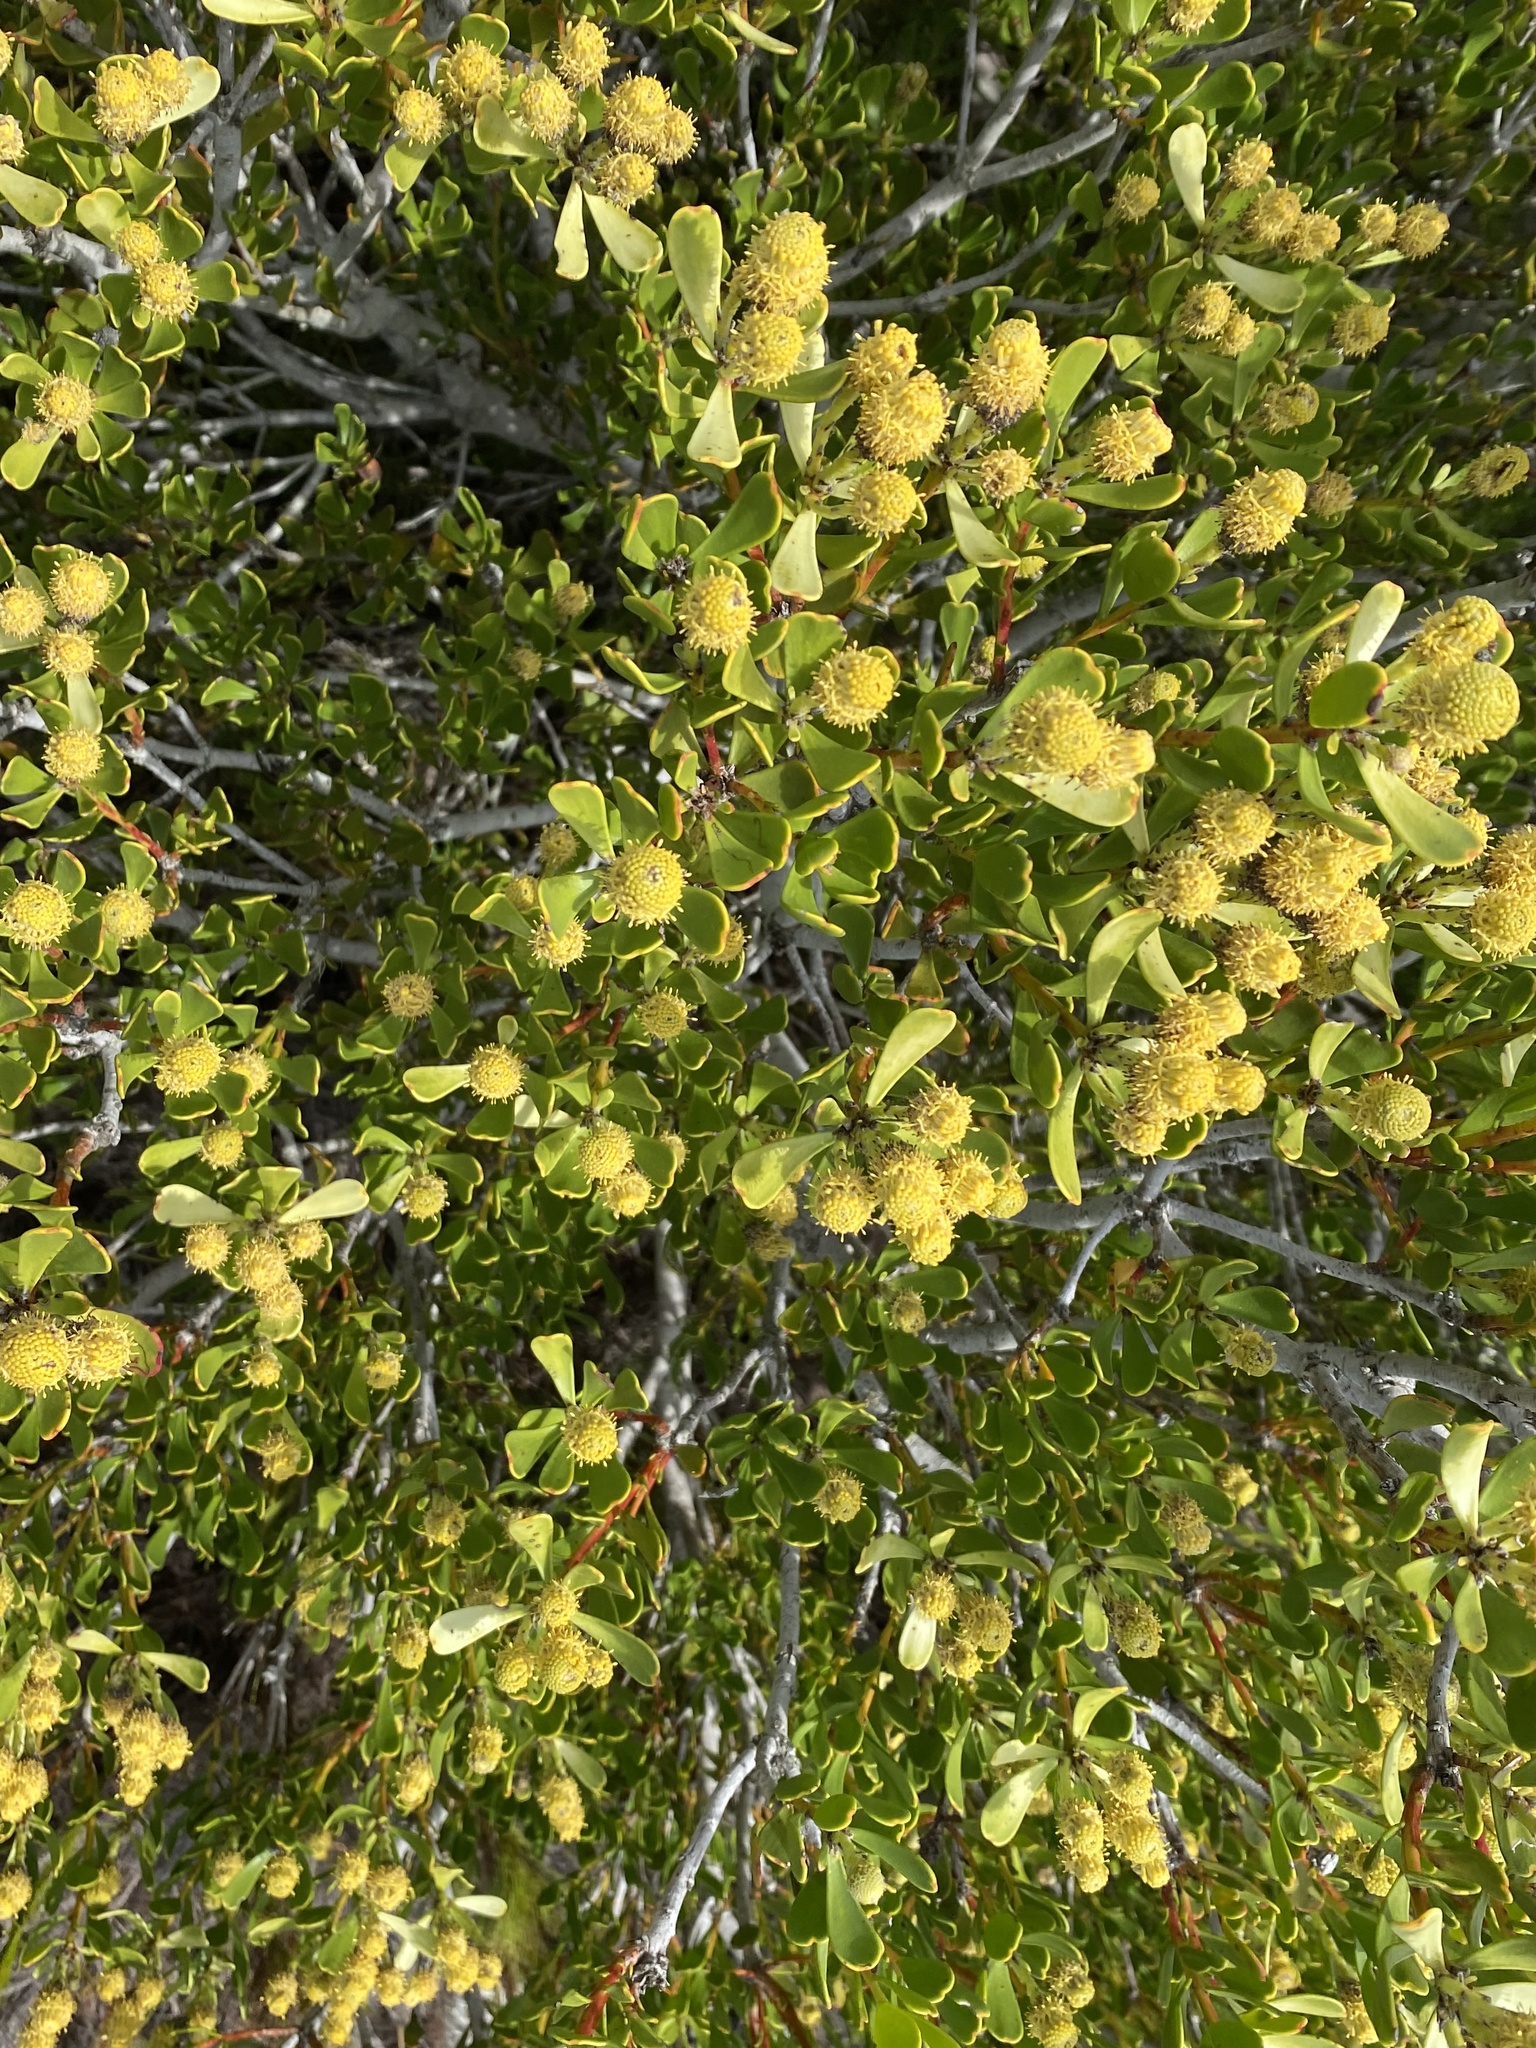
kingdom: Plantae
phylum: Tracheophyta
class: Magnoliopsida
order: Proteales
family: Proteaceae
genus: Leucadendron
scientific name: Leucadendron muirii
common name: Silver-ball conebush
